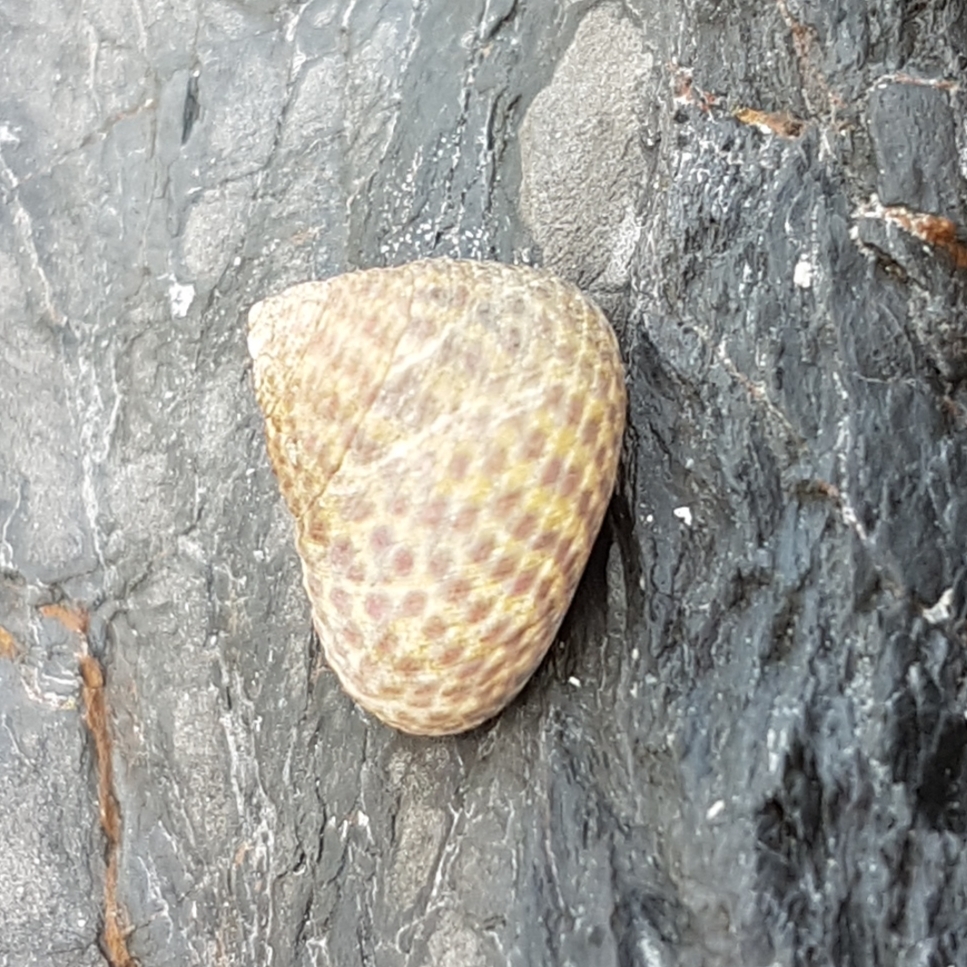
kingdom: Animalia
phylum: Mollusca
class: Gastropoda
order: Trochida
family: Trochidae
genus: Phorcus
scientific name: Phorcus turbinatus
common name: Turbinate monodont
